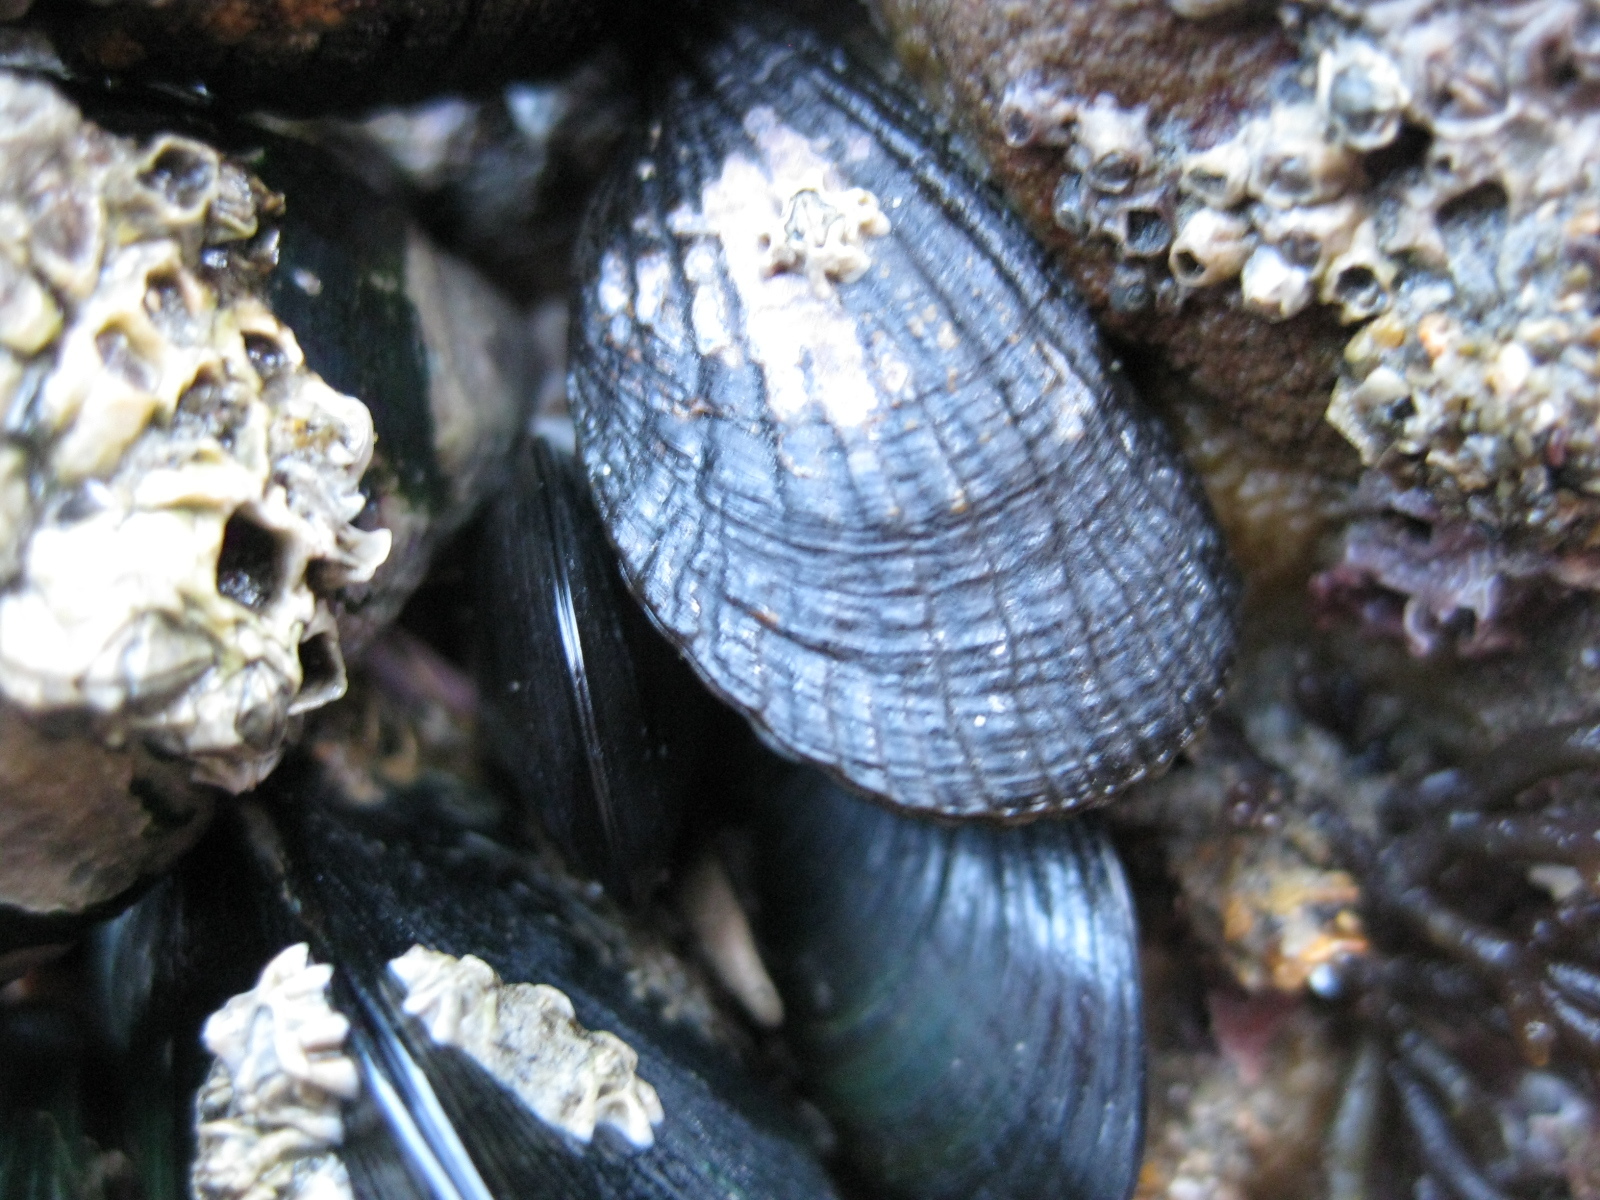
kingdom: Animalia
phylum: Mollusca
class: Bivalvia
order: Mytilida
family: Mytilidae
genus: Aulacomya
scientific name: Aulacomya maoriana
